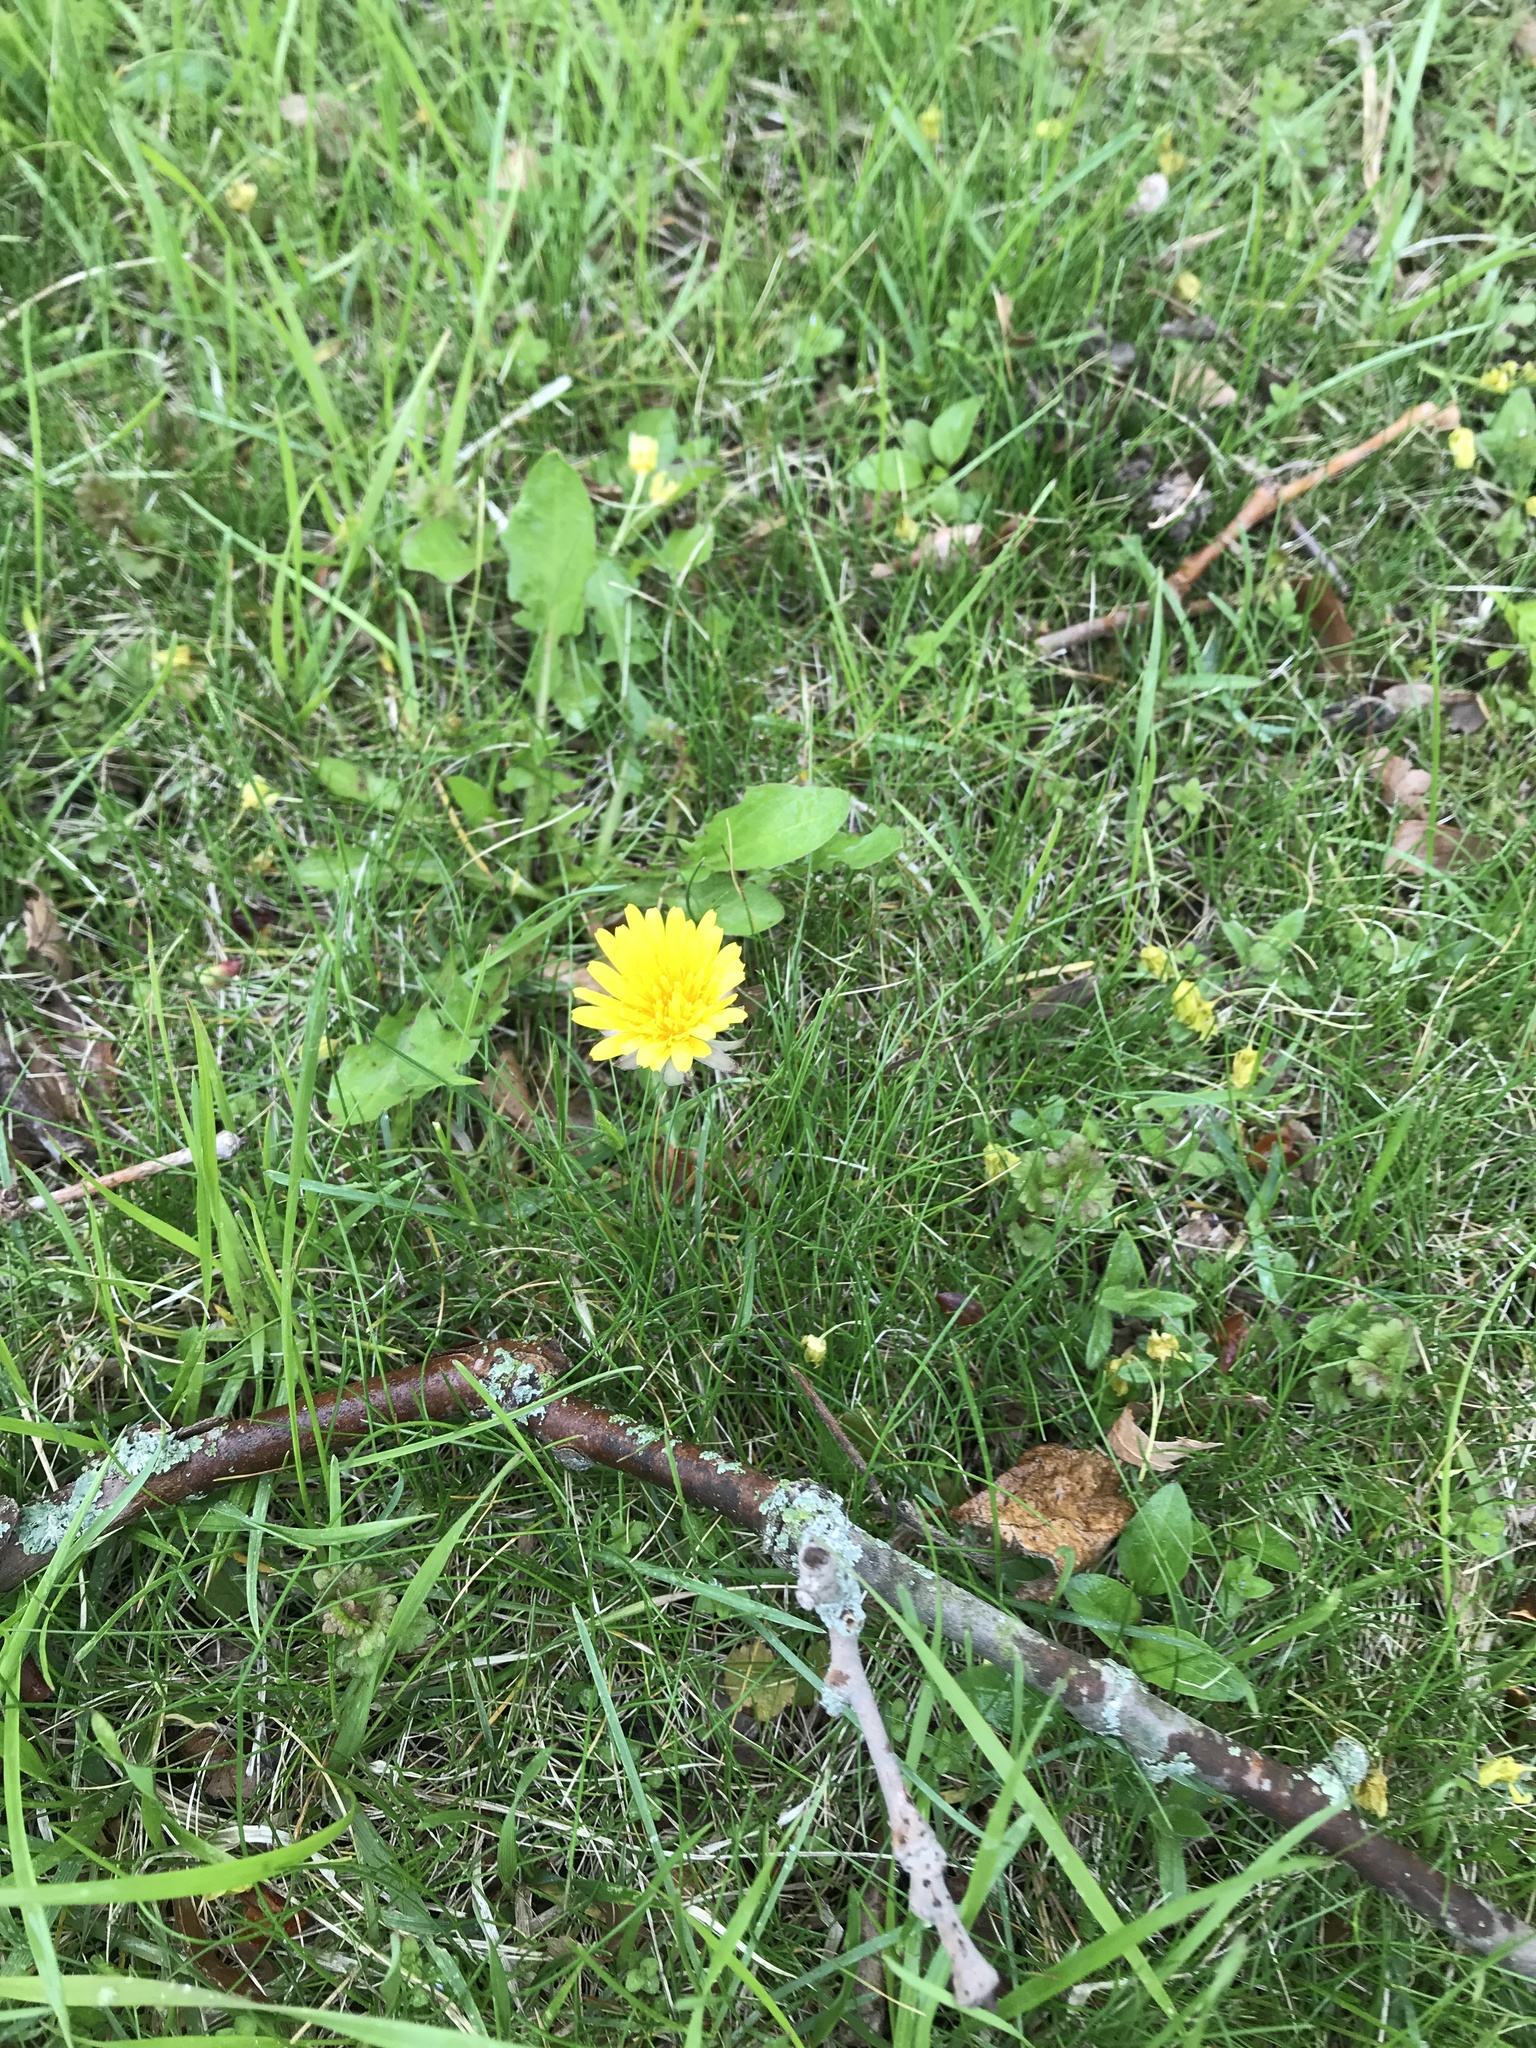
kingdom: Plantae
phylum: Tracheophyta
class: Magnoliopsida
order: Asterales
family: Asteraceae
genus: Taraxacum
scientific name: Taraxacum officinale
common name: Common dandelion
